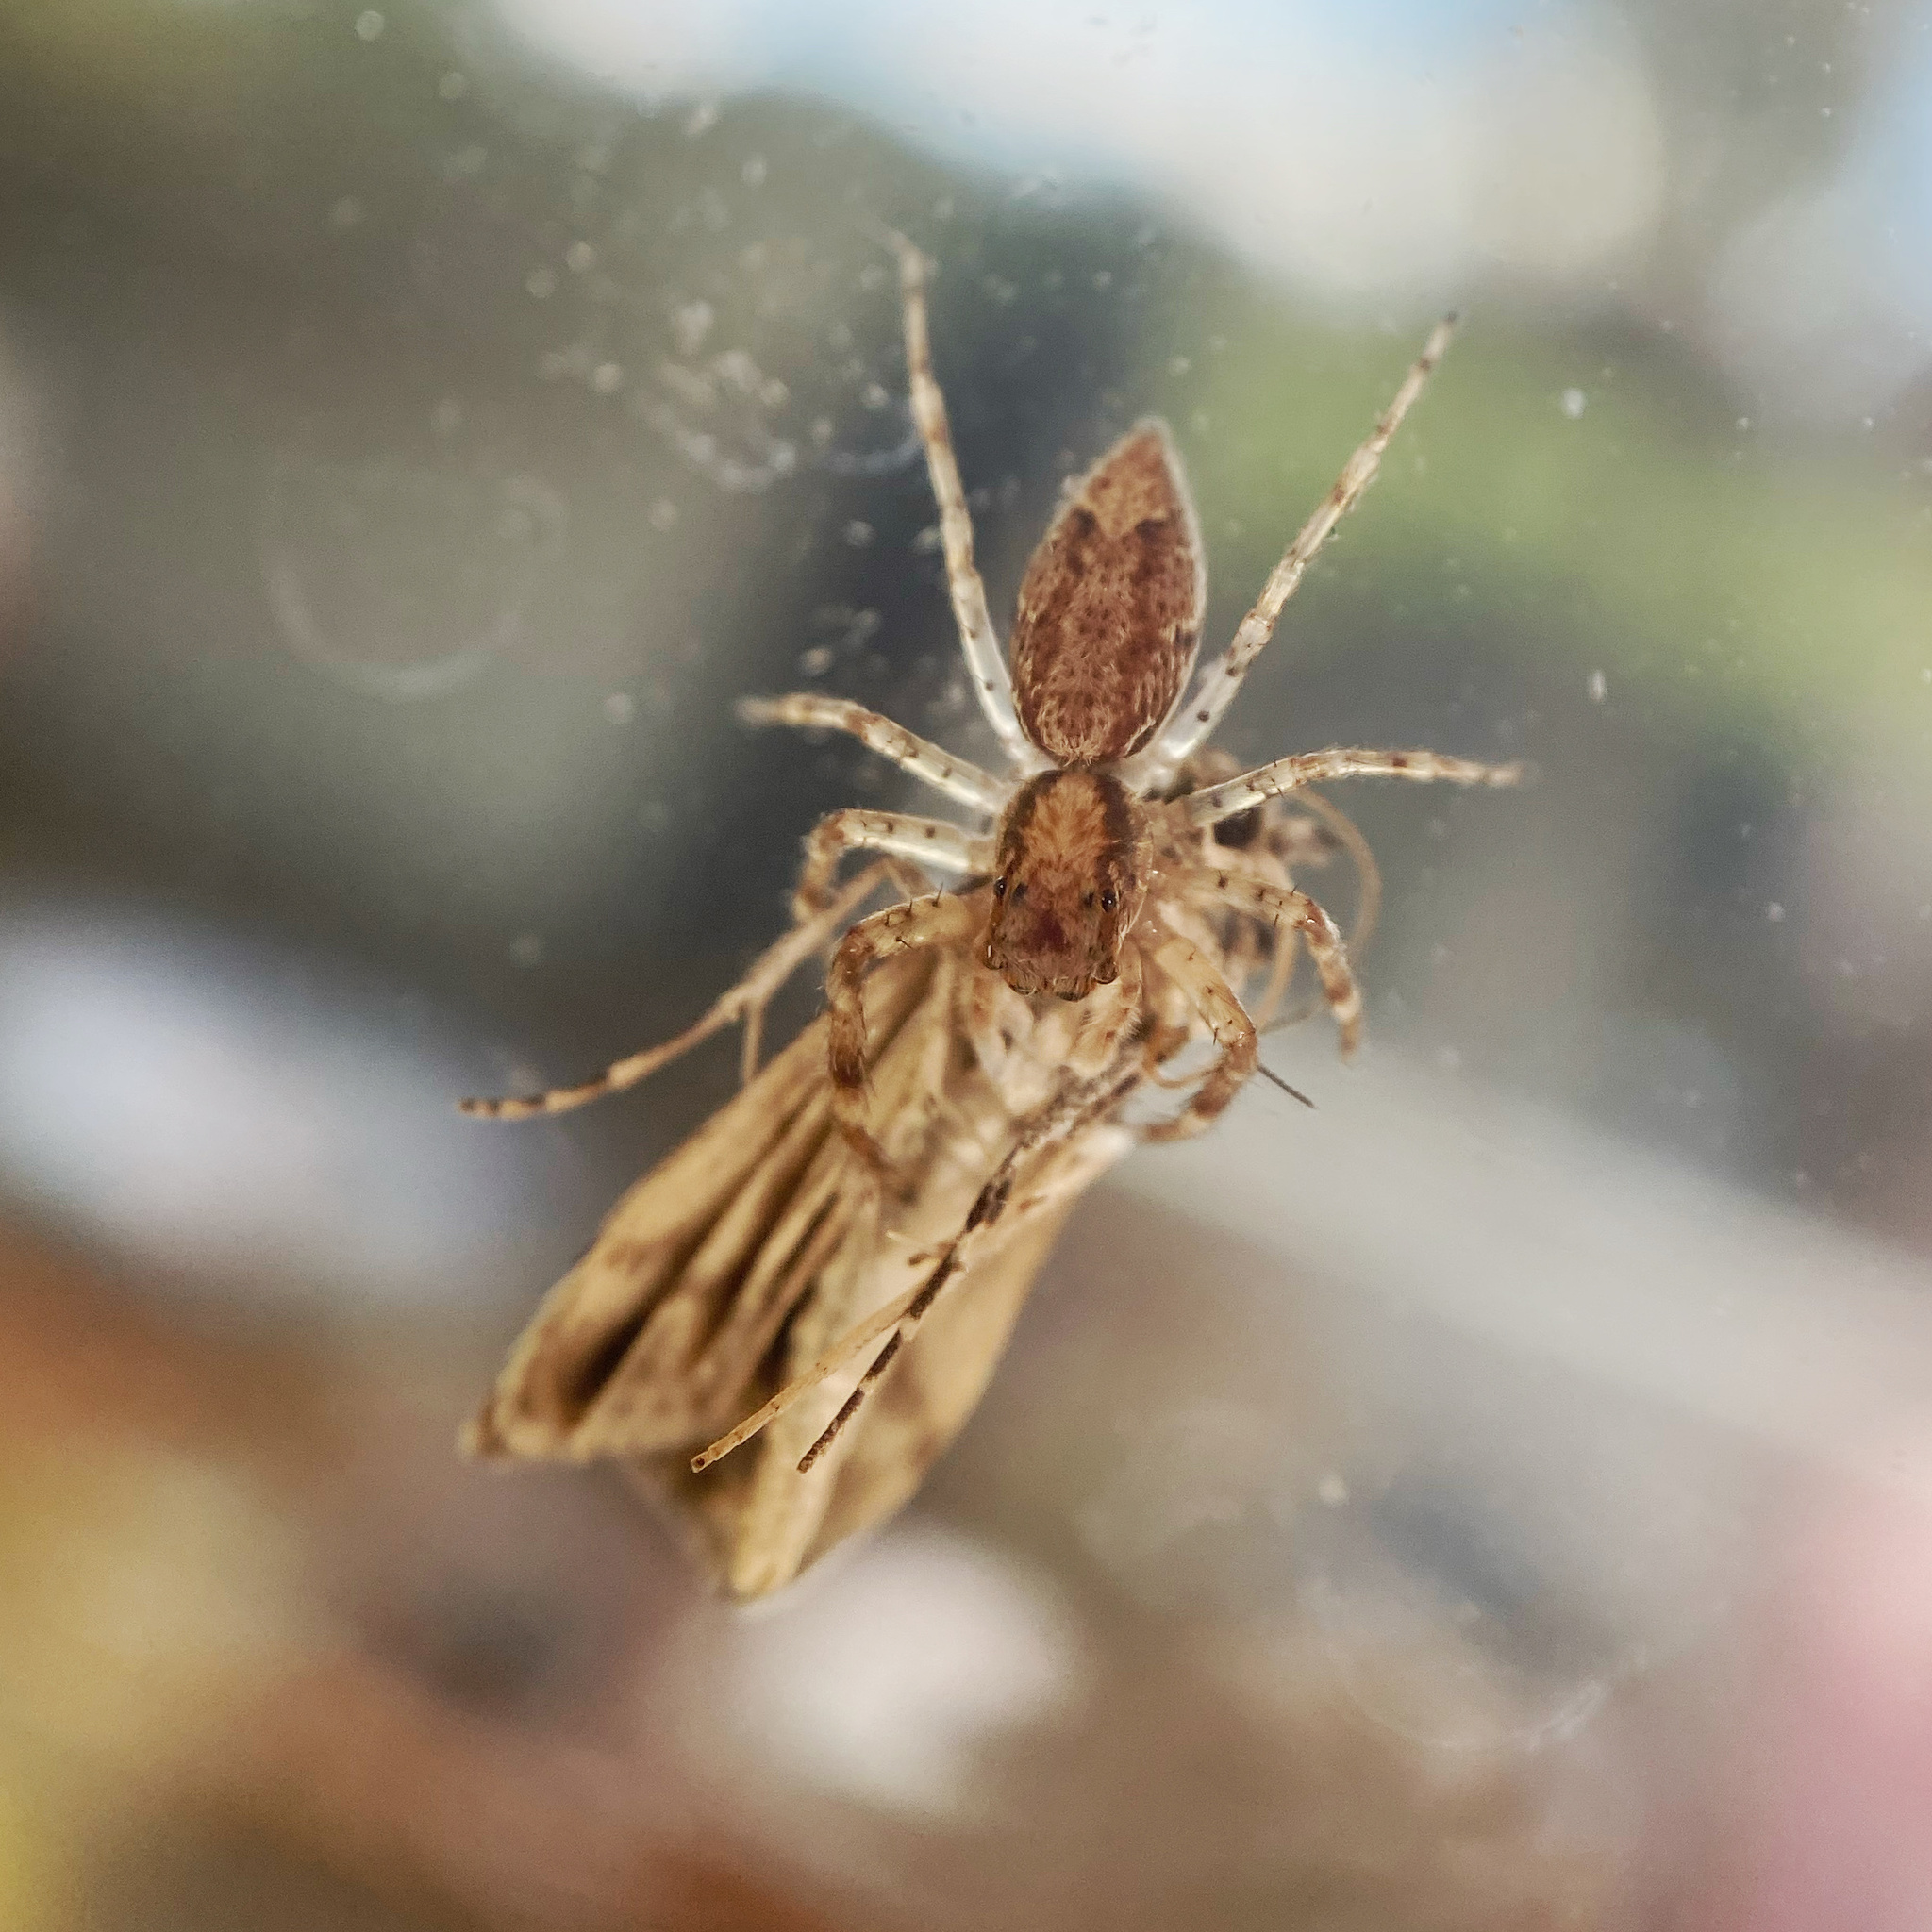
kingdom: Animalia
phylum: Arthropoda
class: Arachnida
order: Araneae
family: Salticidae
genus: Helpis
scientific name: Helpis minitabunda
